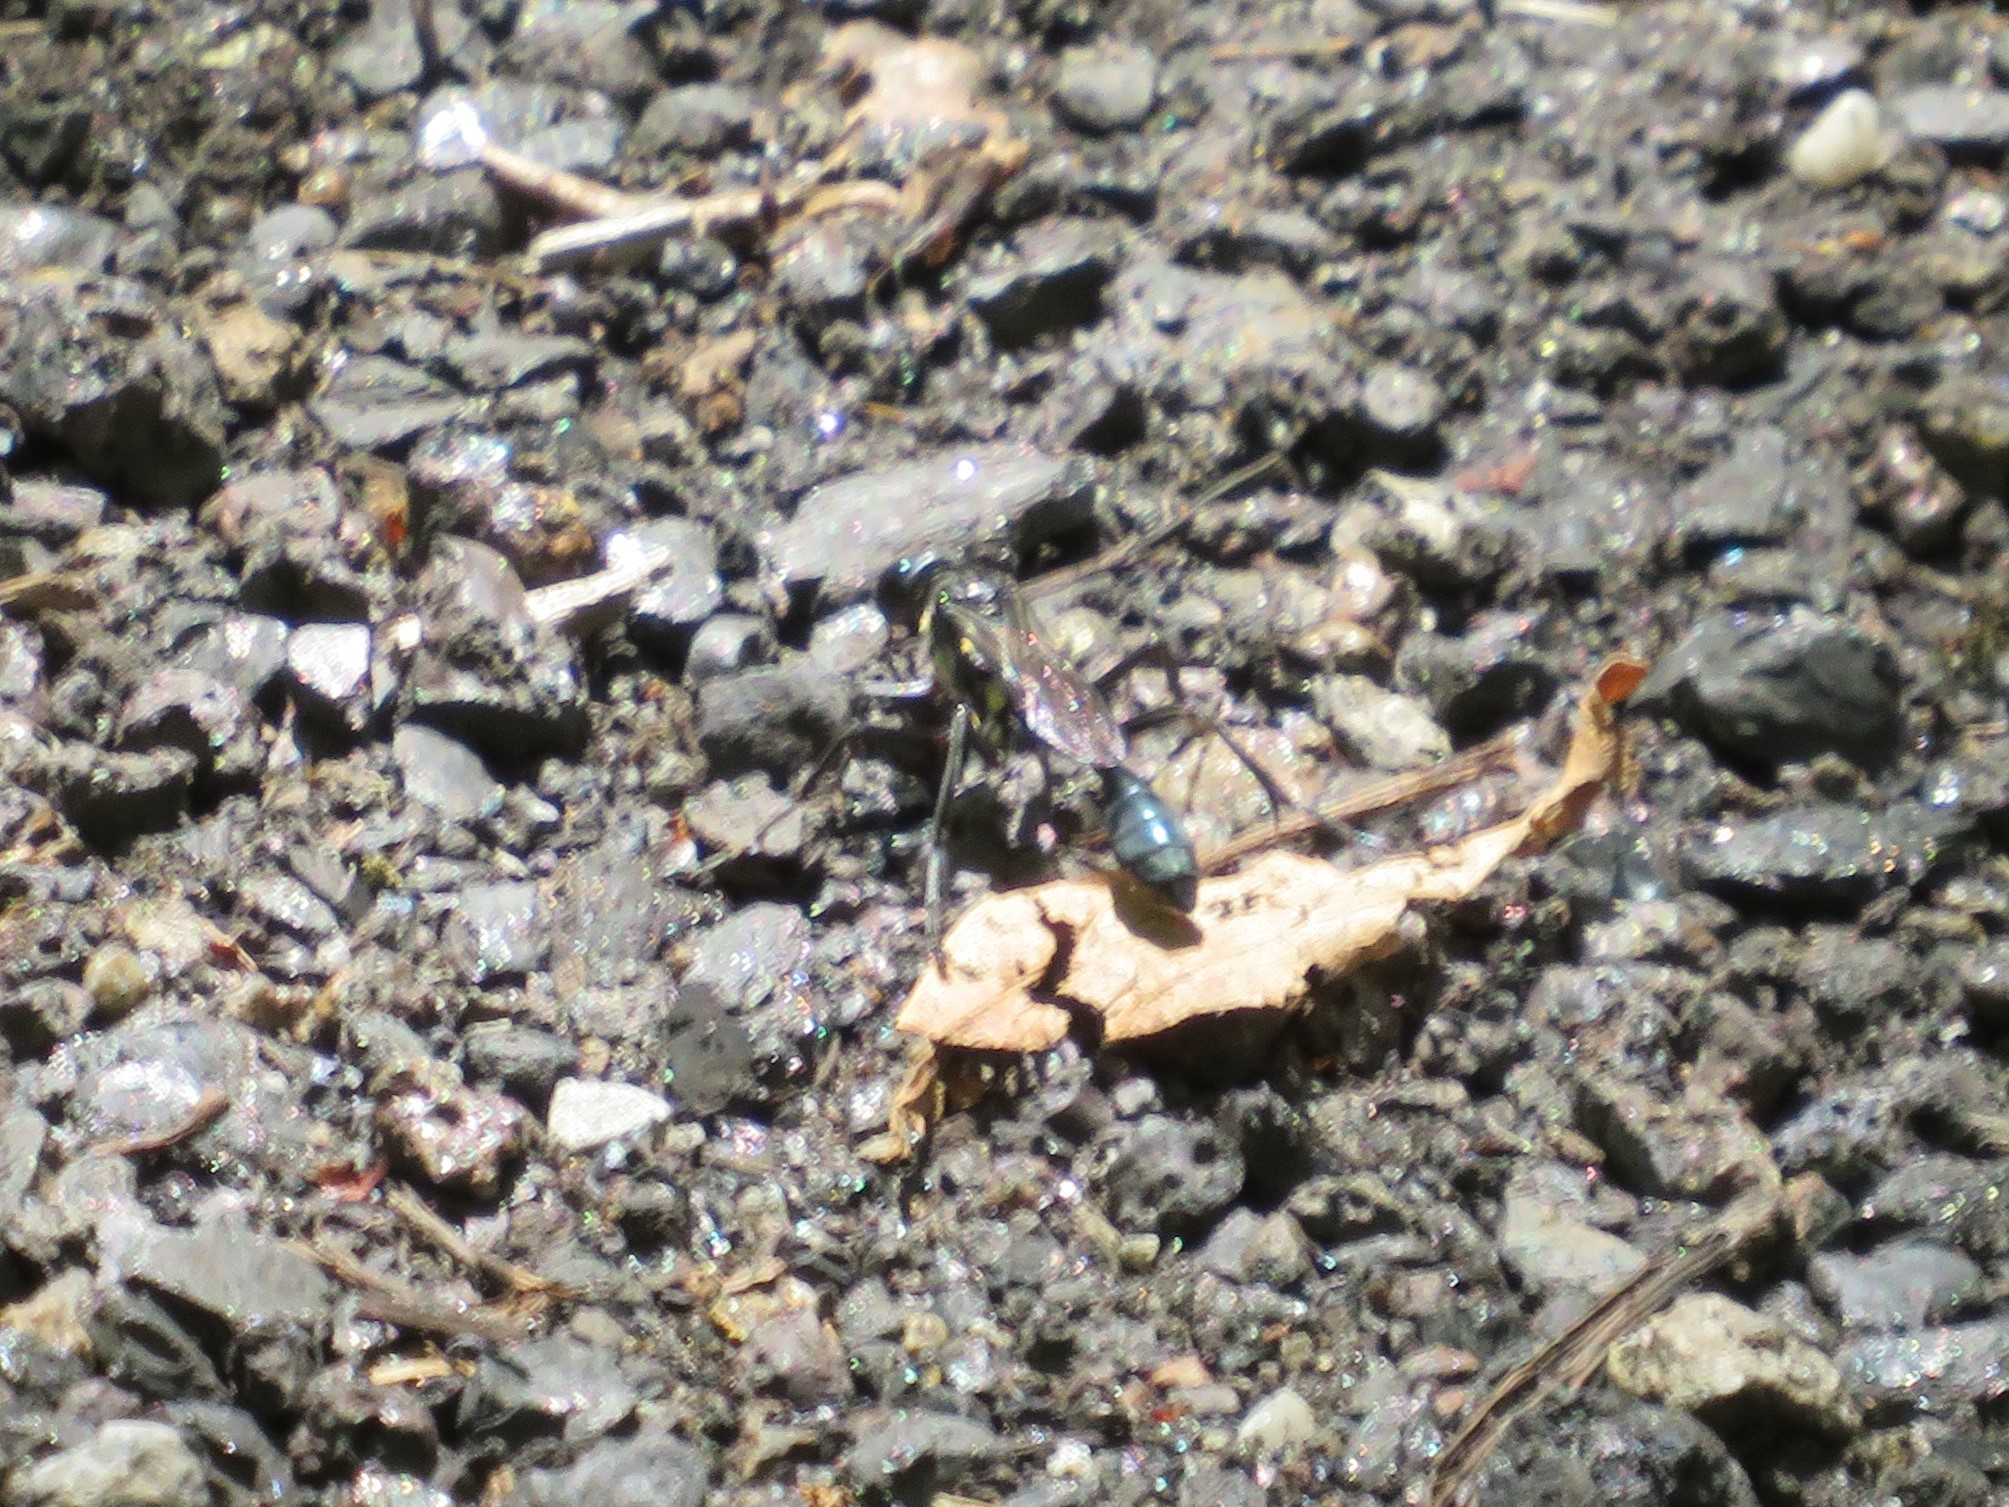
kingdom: Animalia
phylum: Arthropoda
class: Insecta
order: Hymenoptera
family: Sphecidae
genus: Eremnophila
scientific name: Eremnophila aureonotata
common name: Gold-marked thread-waisted wasp
